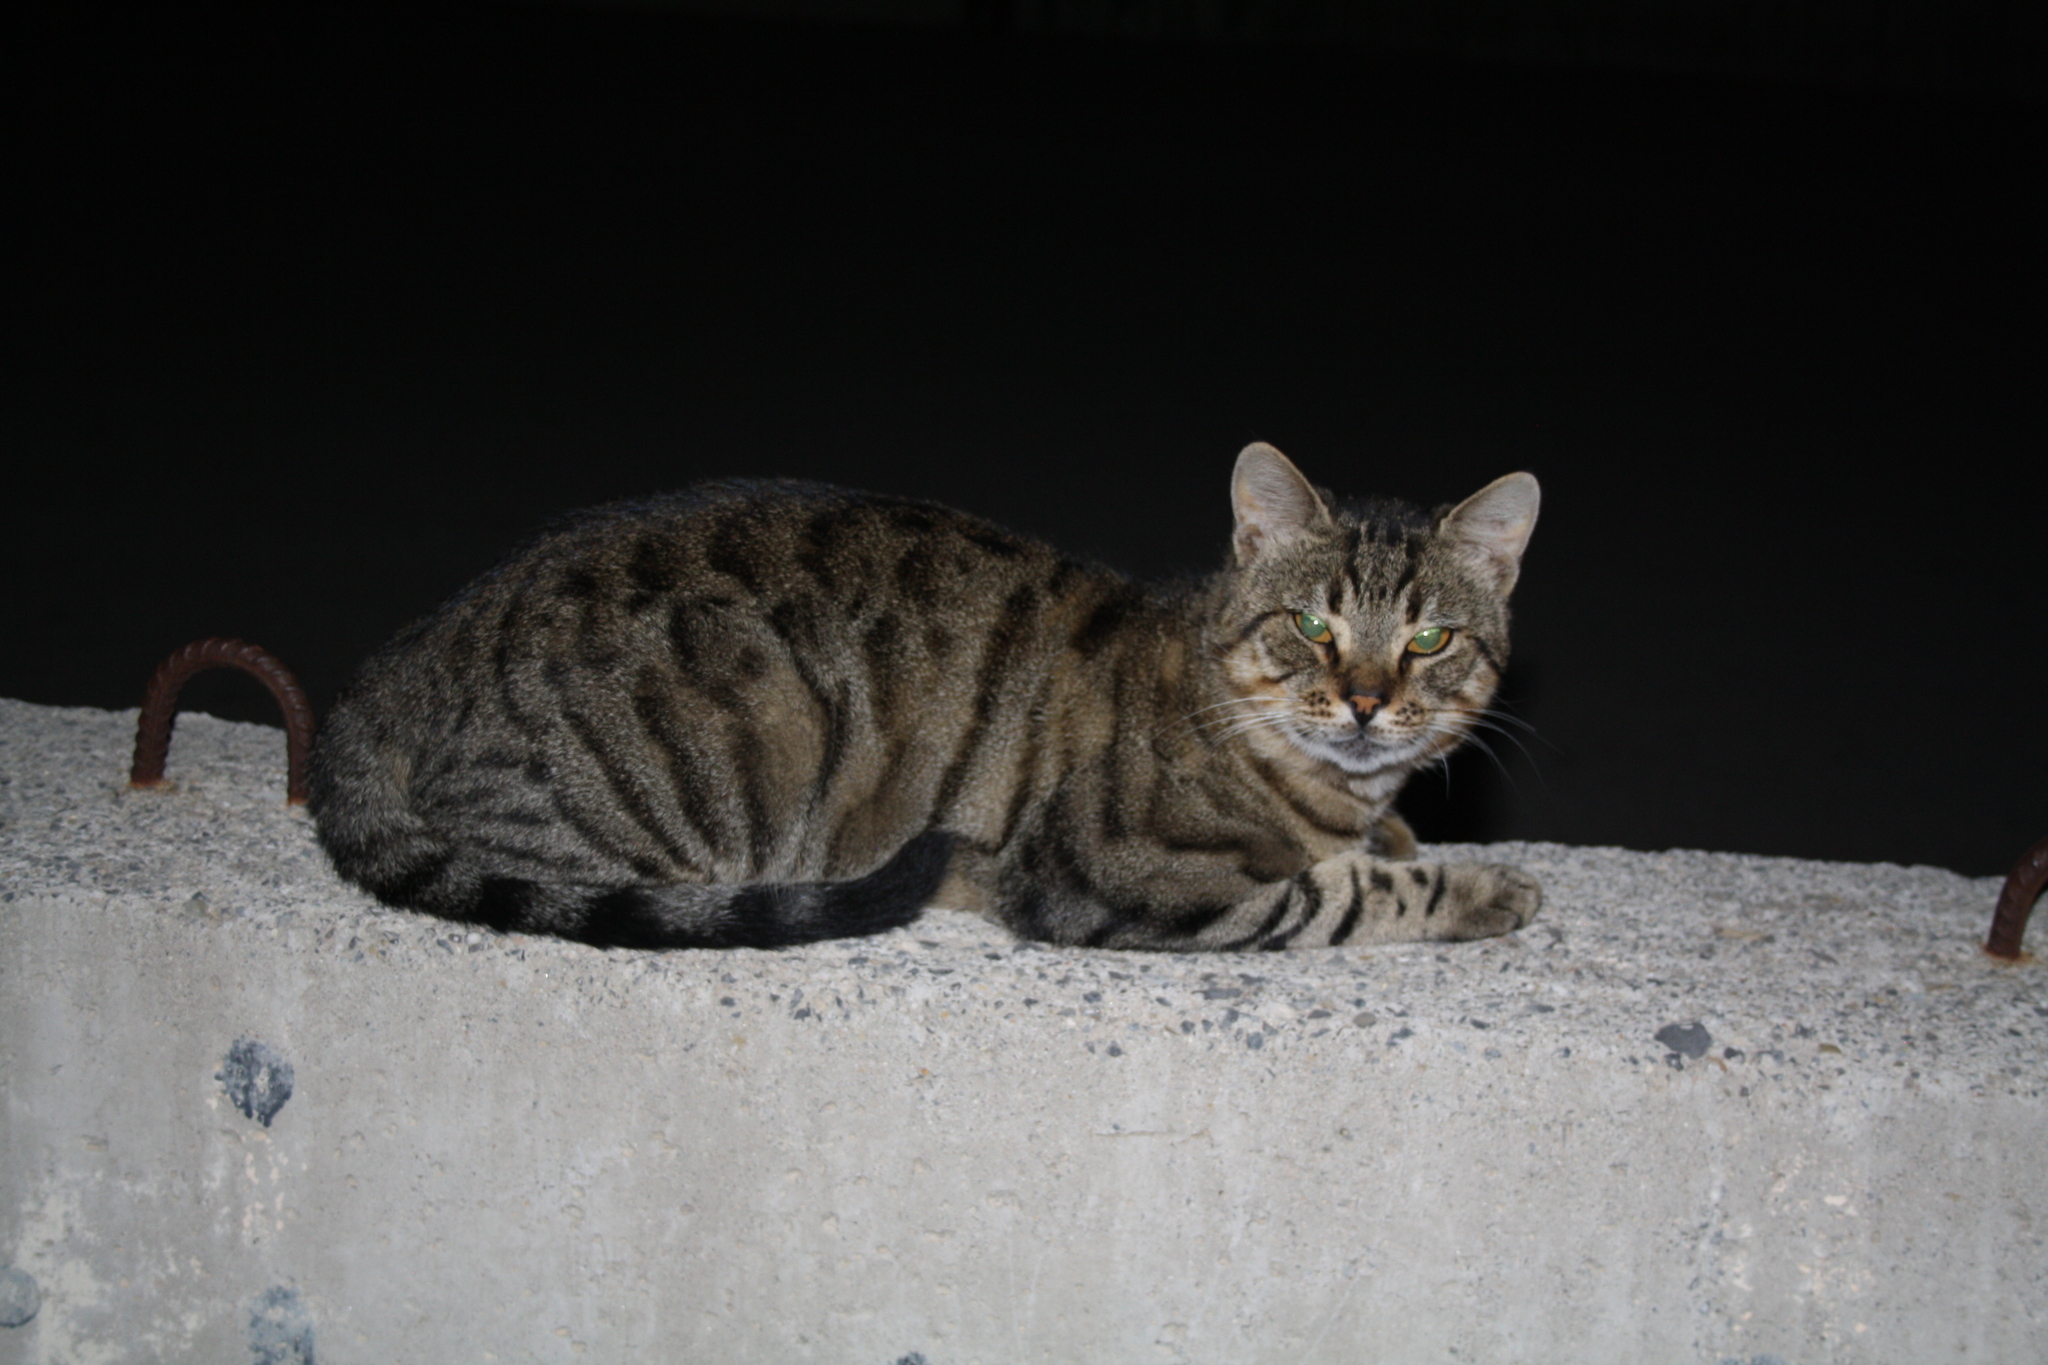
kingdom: Animalia
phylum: Chordata
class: Mammalia
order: Carnivora
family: Felidae
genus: Felis
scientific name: Felis catus
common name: Domestic cat
